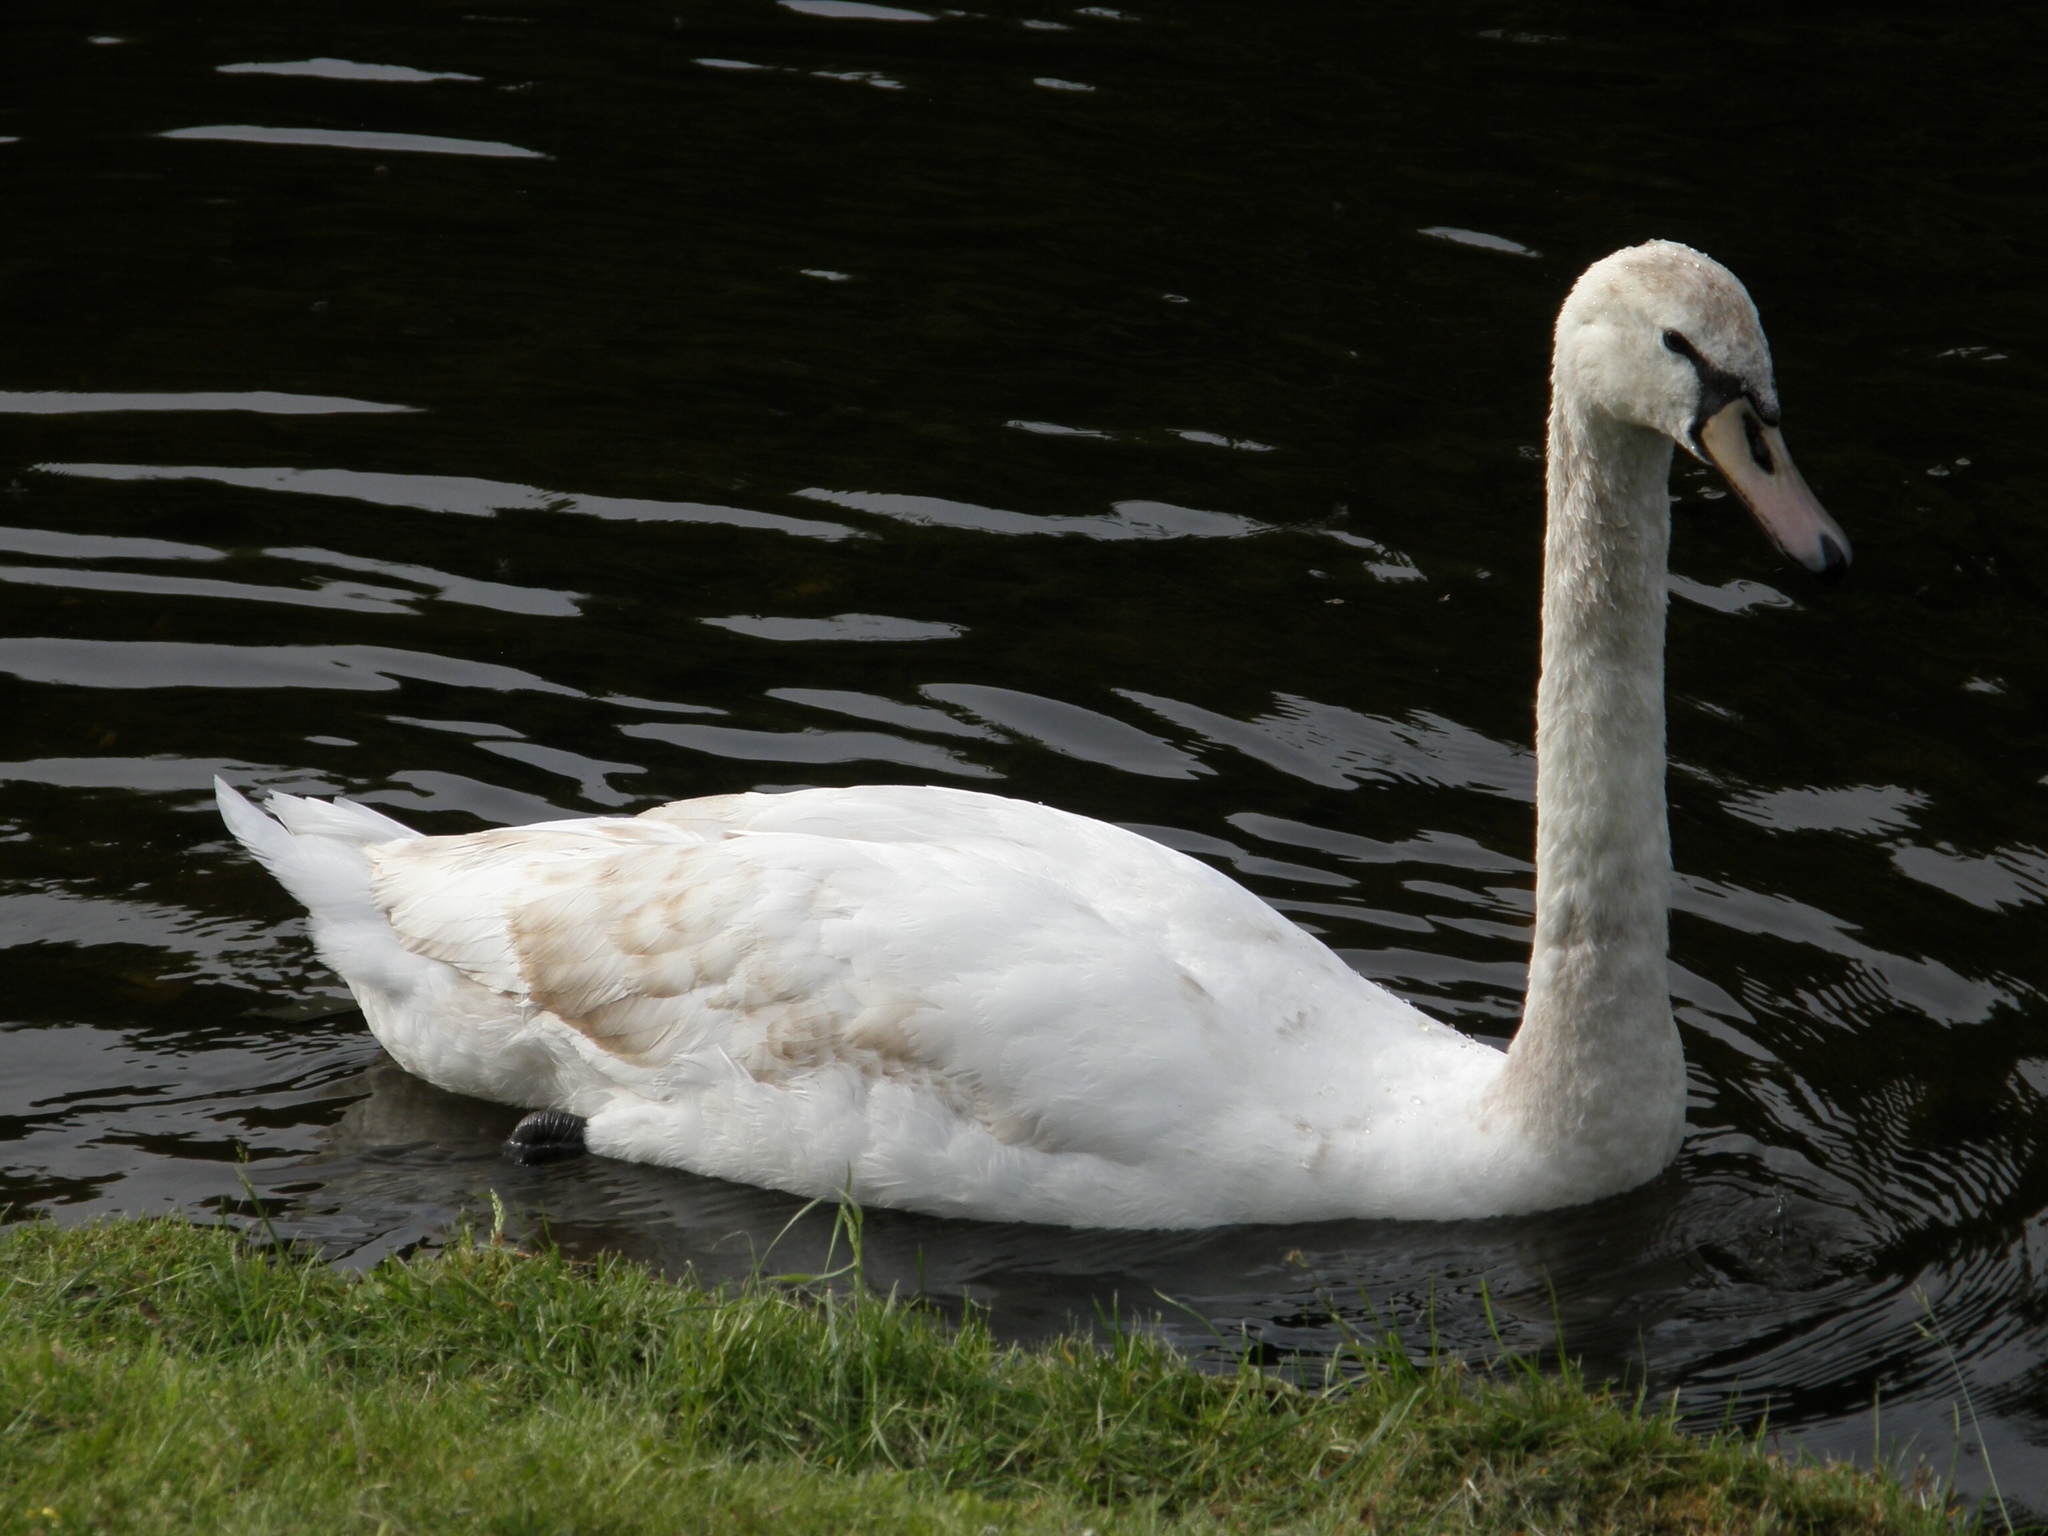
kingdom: Animalia
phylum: Chordata
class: Aves
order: Anseriformes
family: Anatidae
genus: Cygnus
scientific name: Cygnus olor
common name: Mute swan
